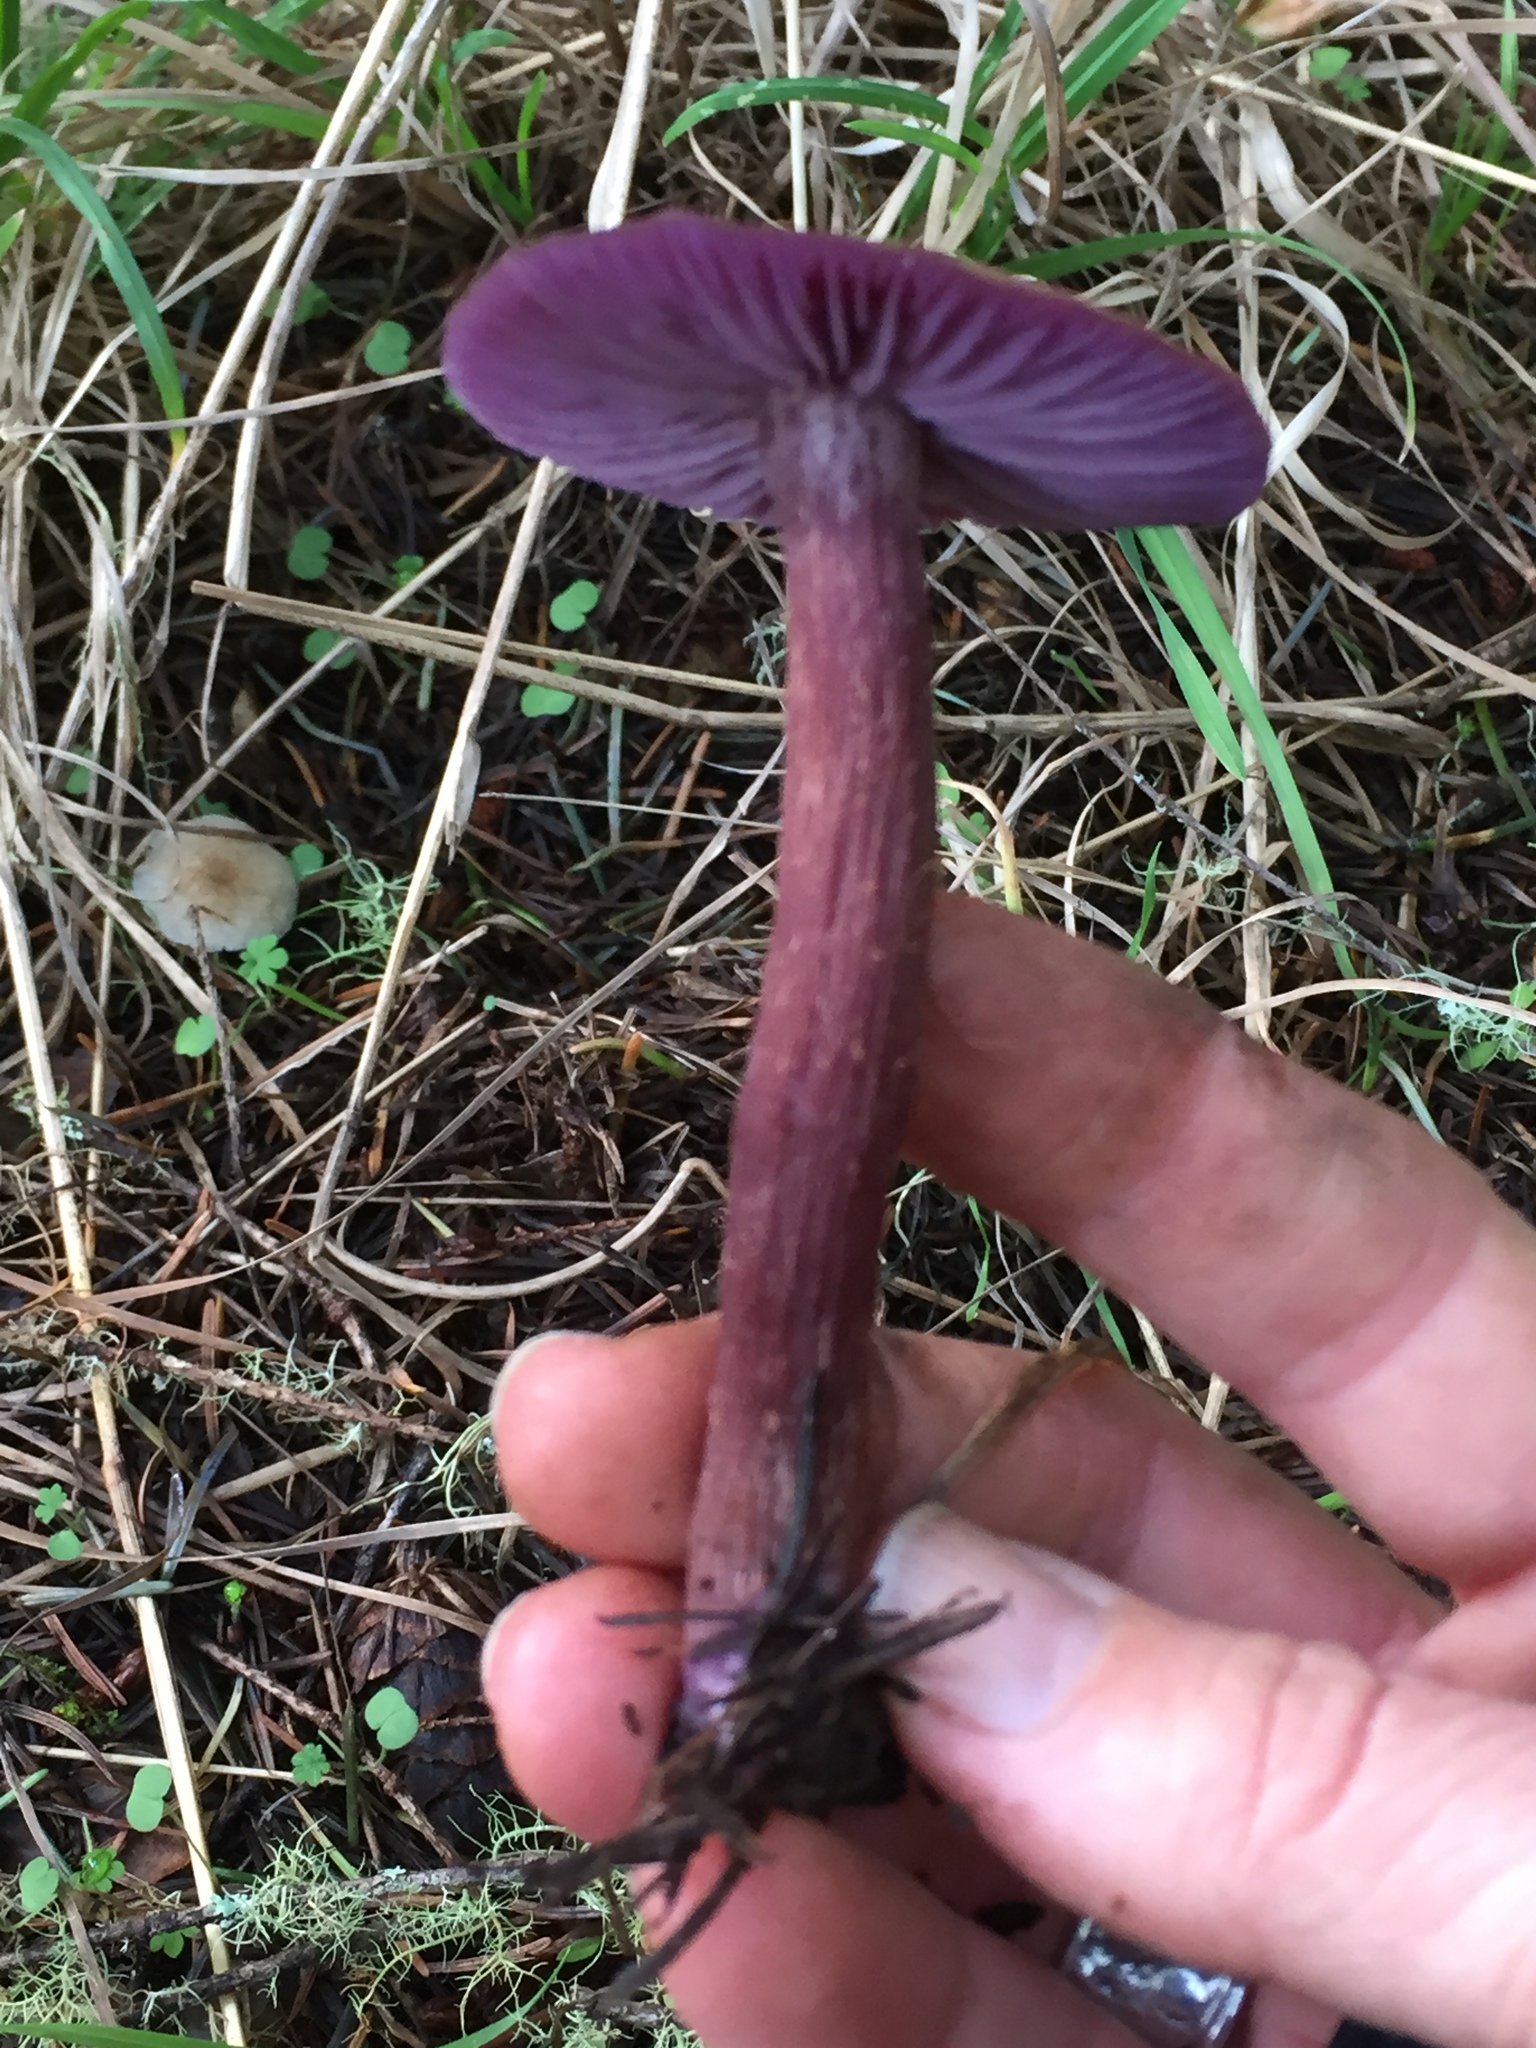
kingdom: Fungi
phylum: Basidiomycota
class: Agaricomycetes
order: Agaricales
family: Hydnangiaceae
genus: Laccaria
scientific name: Laccaria amethysteo-occidentalis
